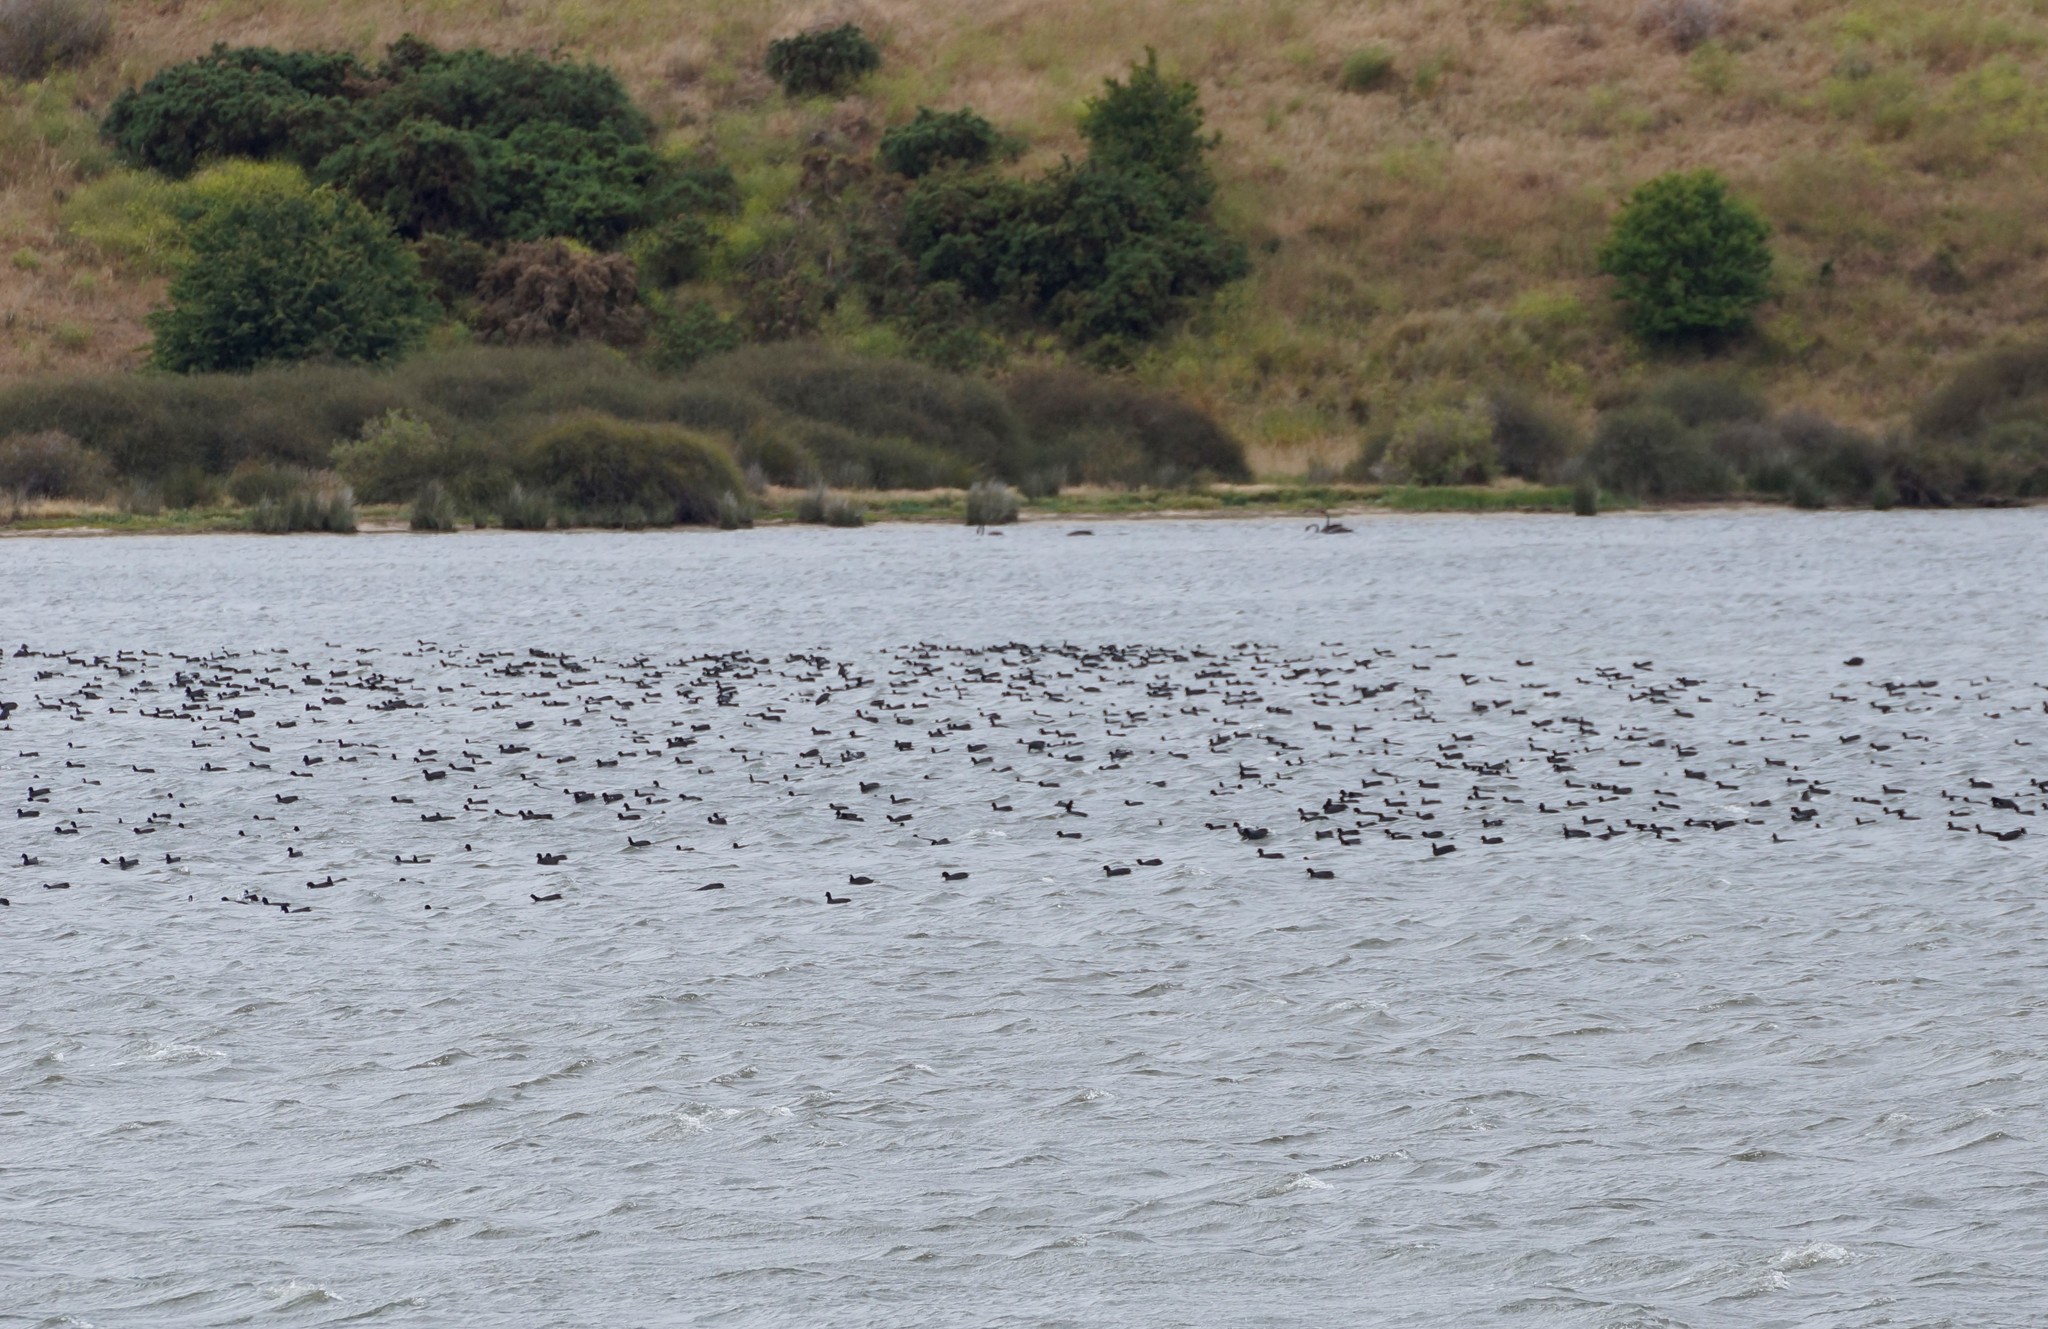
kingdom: Animalia
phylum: Chordata
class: Aves
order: Gruiformes
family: Rallidae
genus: Fulica
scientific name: Fulica atra
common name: Eurasian coot
